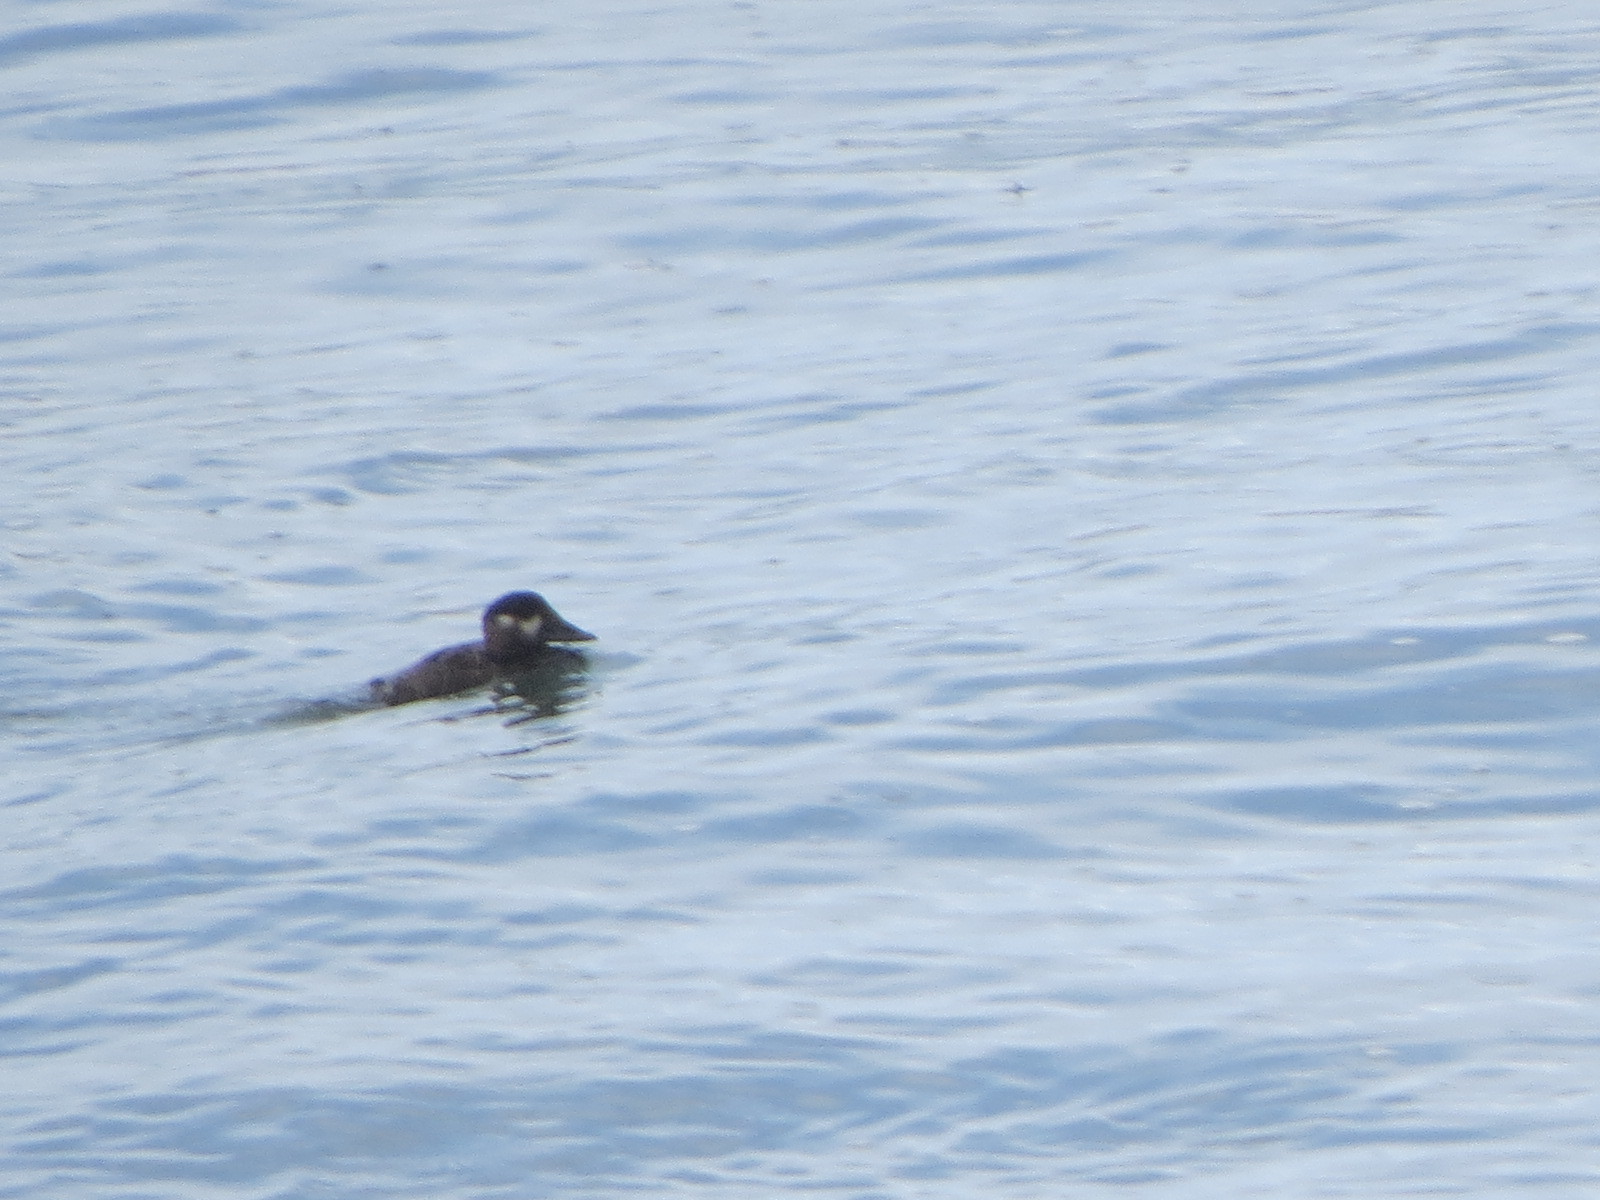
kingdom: Animalia
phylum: Chordata
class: Aves
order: Anseriformes
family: Anatidae
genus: Melanitta
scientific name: Melanitta perspicillata
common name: Surf scoter
